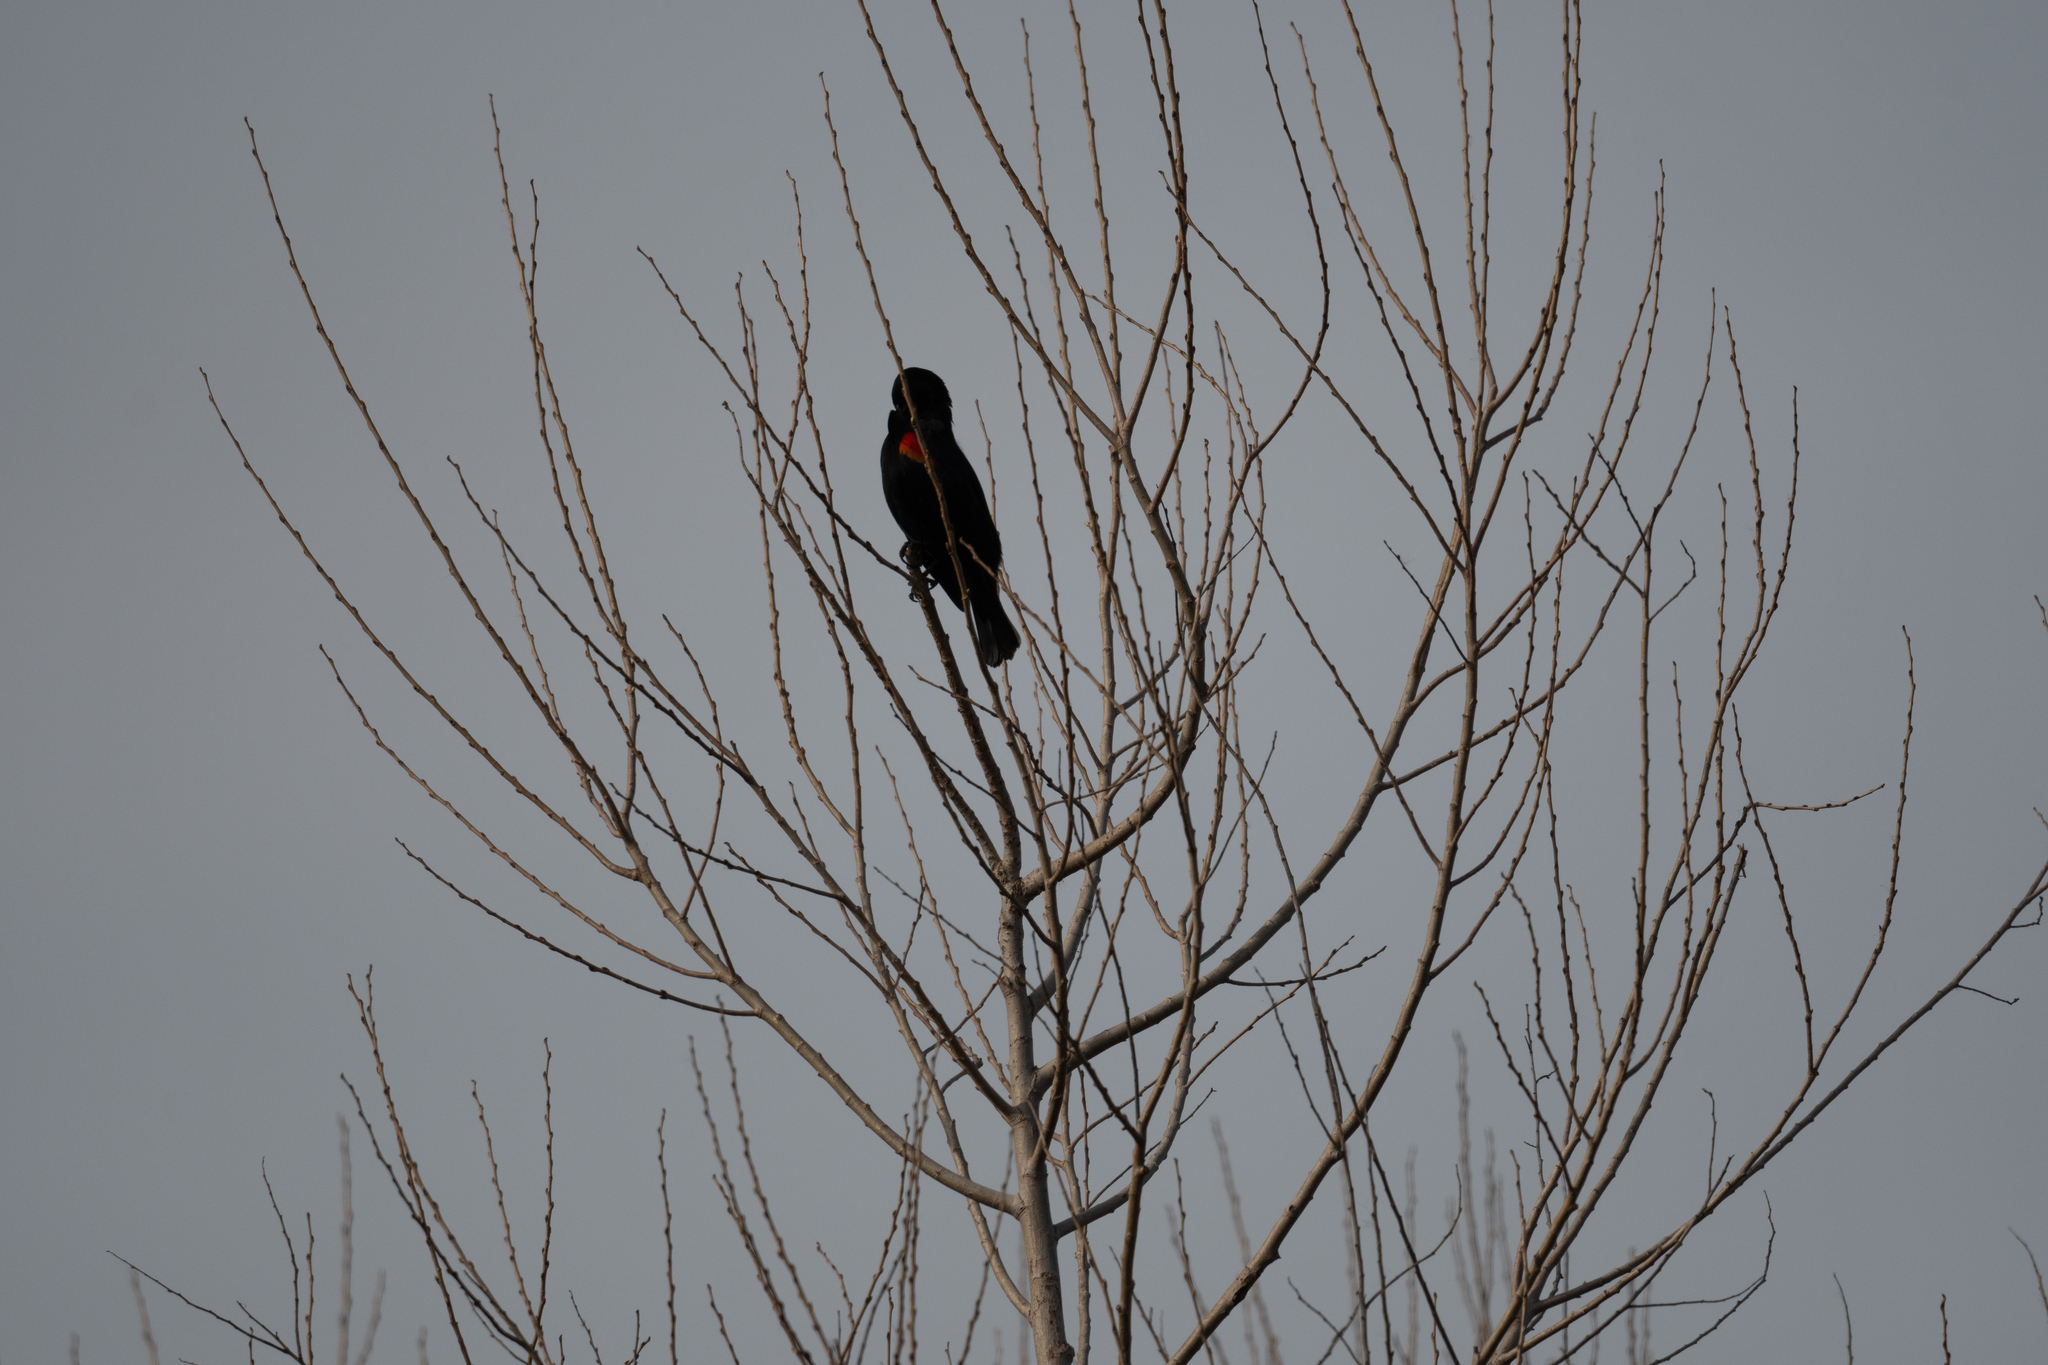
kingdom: Animalia
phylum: Chordata
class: Aves
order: Passeriformes
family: Icteridae
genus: Agelaius
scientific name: Agelaius phoeniceus
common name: Red-winged blackbird
